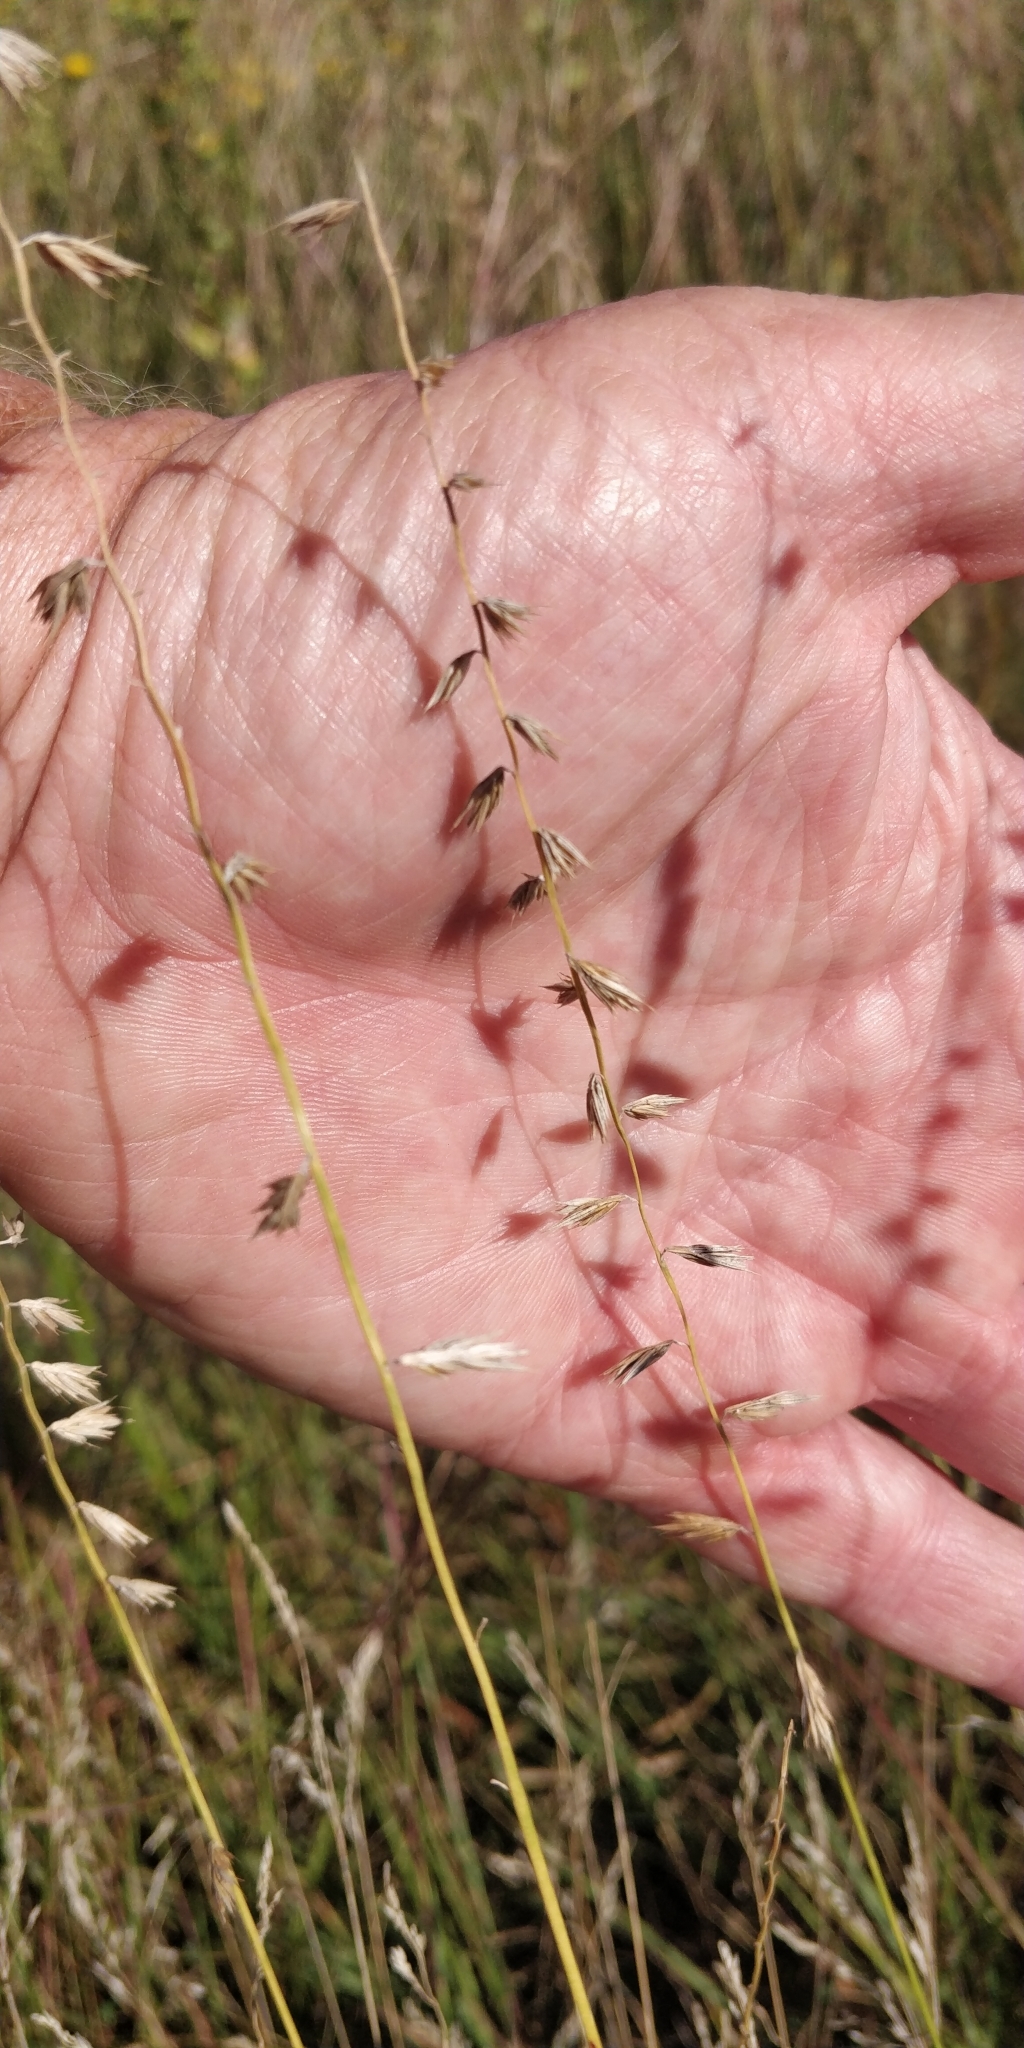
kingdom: Plantae
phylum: Tracheophyta
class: Liliopsida
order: Poales
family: Poaceae
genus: Bouteloua
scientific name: Bouteloua curtipendula
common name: Side-oats grama
